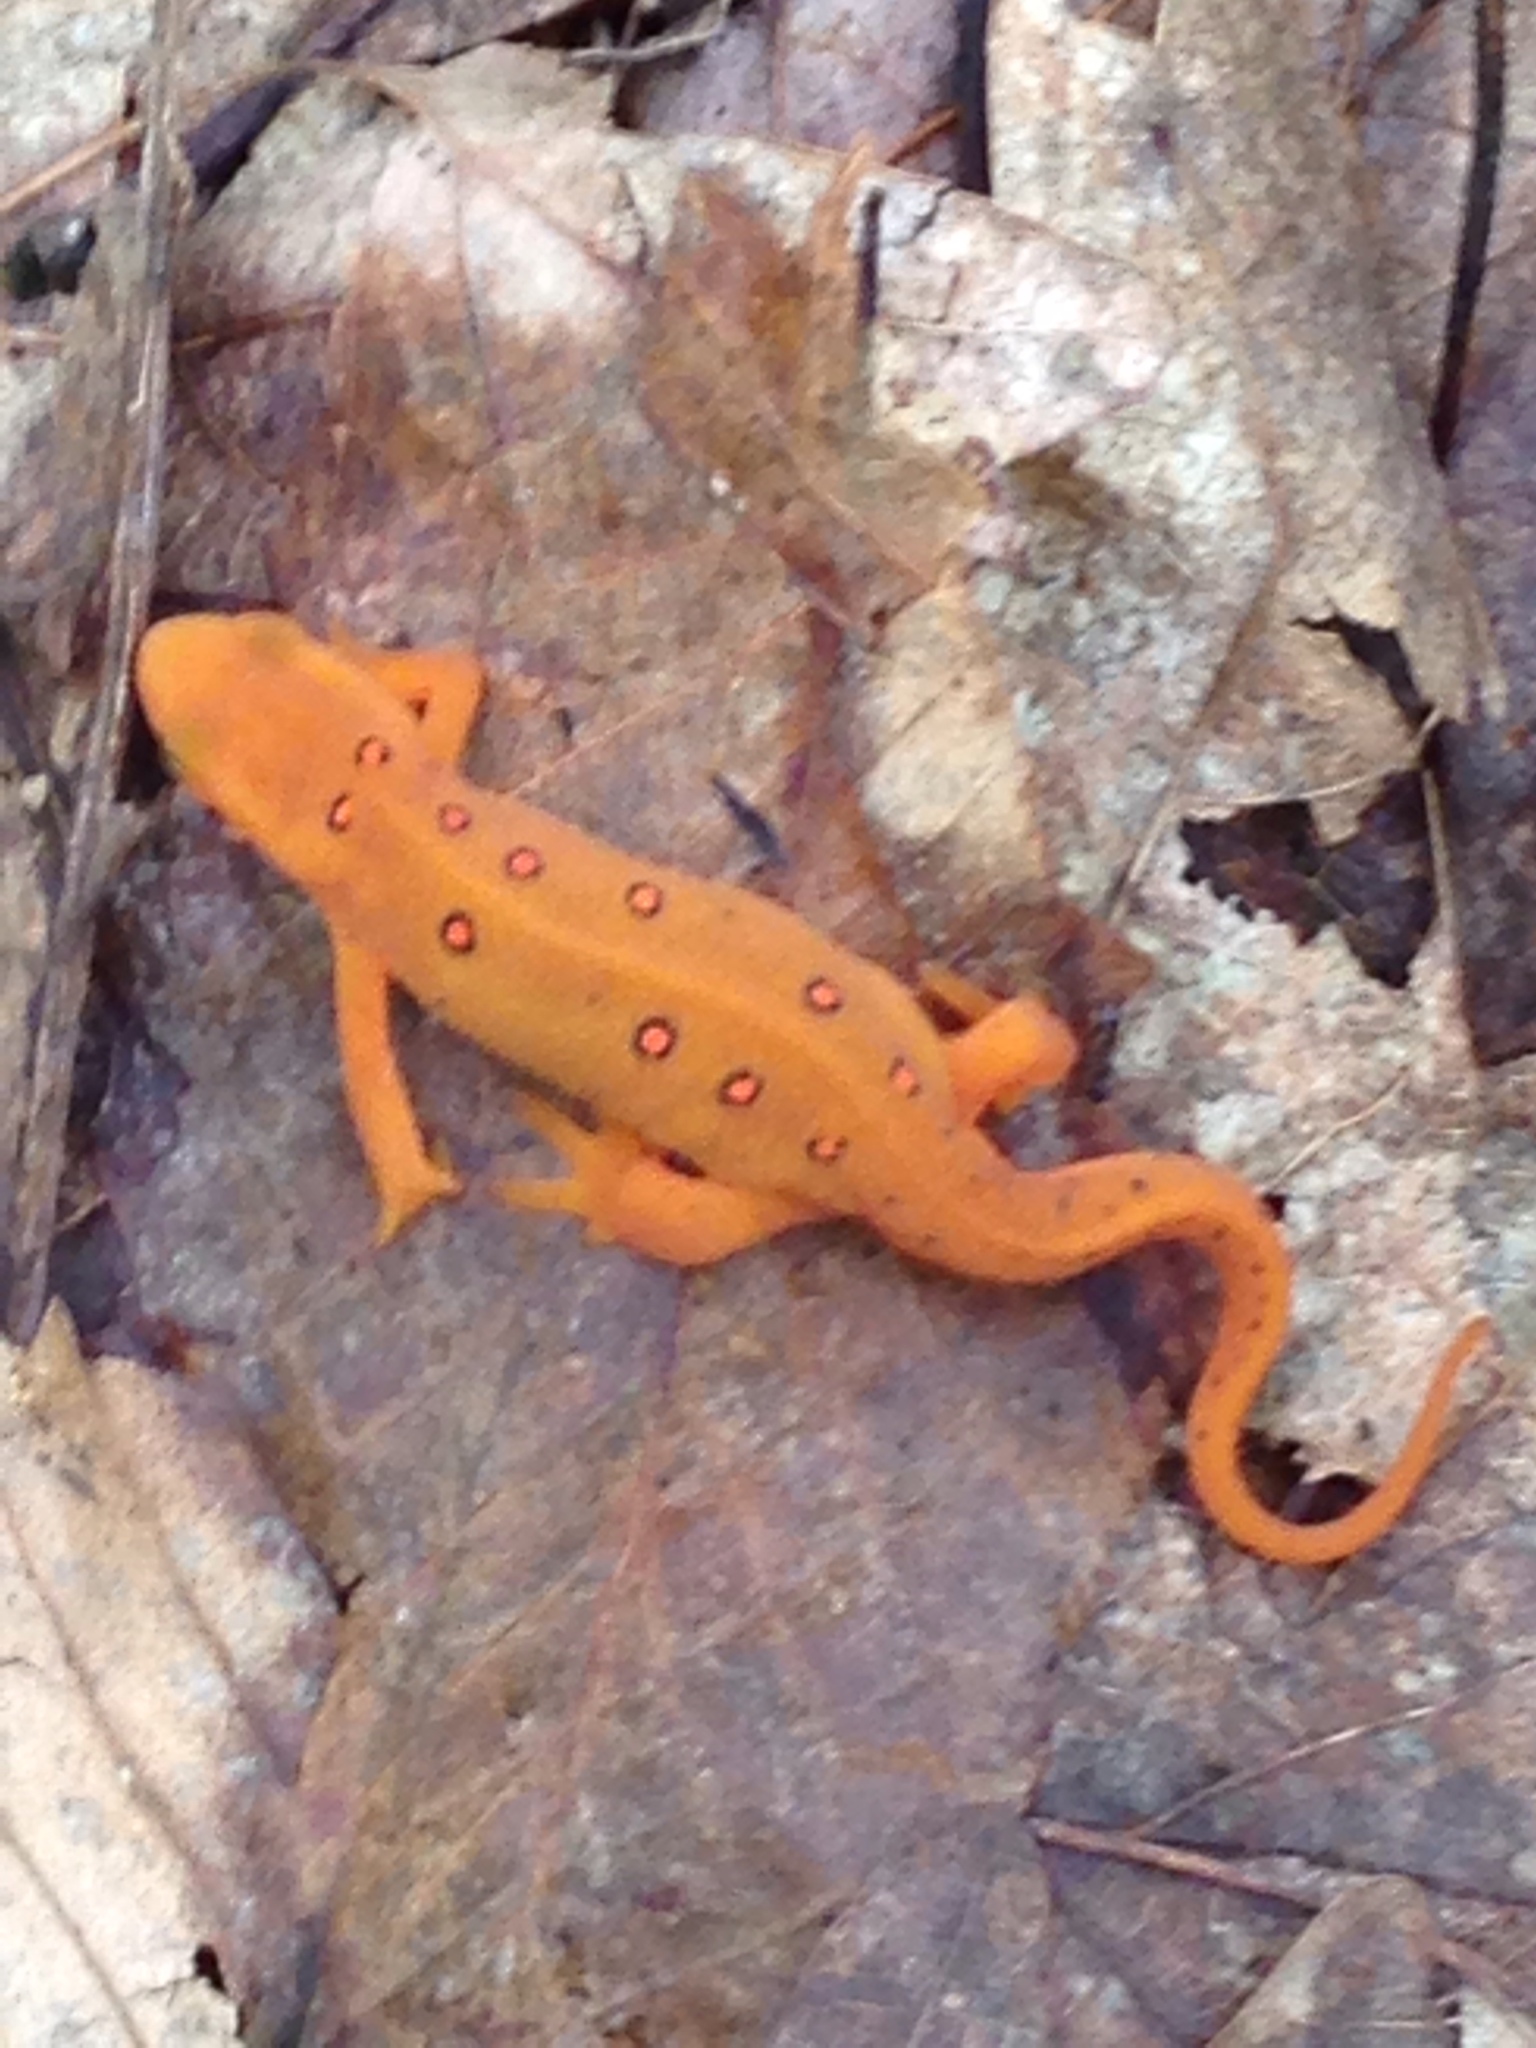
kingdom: Animalia
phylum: Chordata
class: Amphibia
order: Caudata
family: Salamandridae
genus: Notophthalmus
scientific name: Notophthalmus viridescens
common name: Eastern newt
